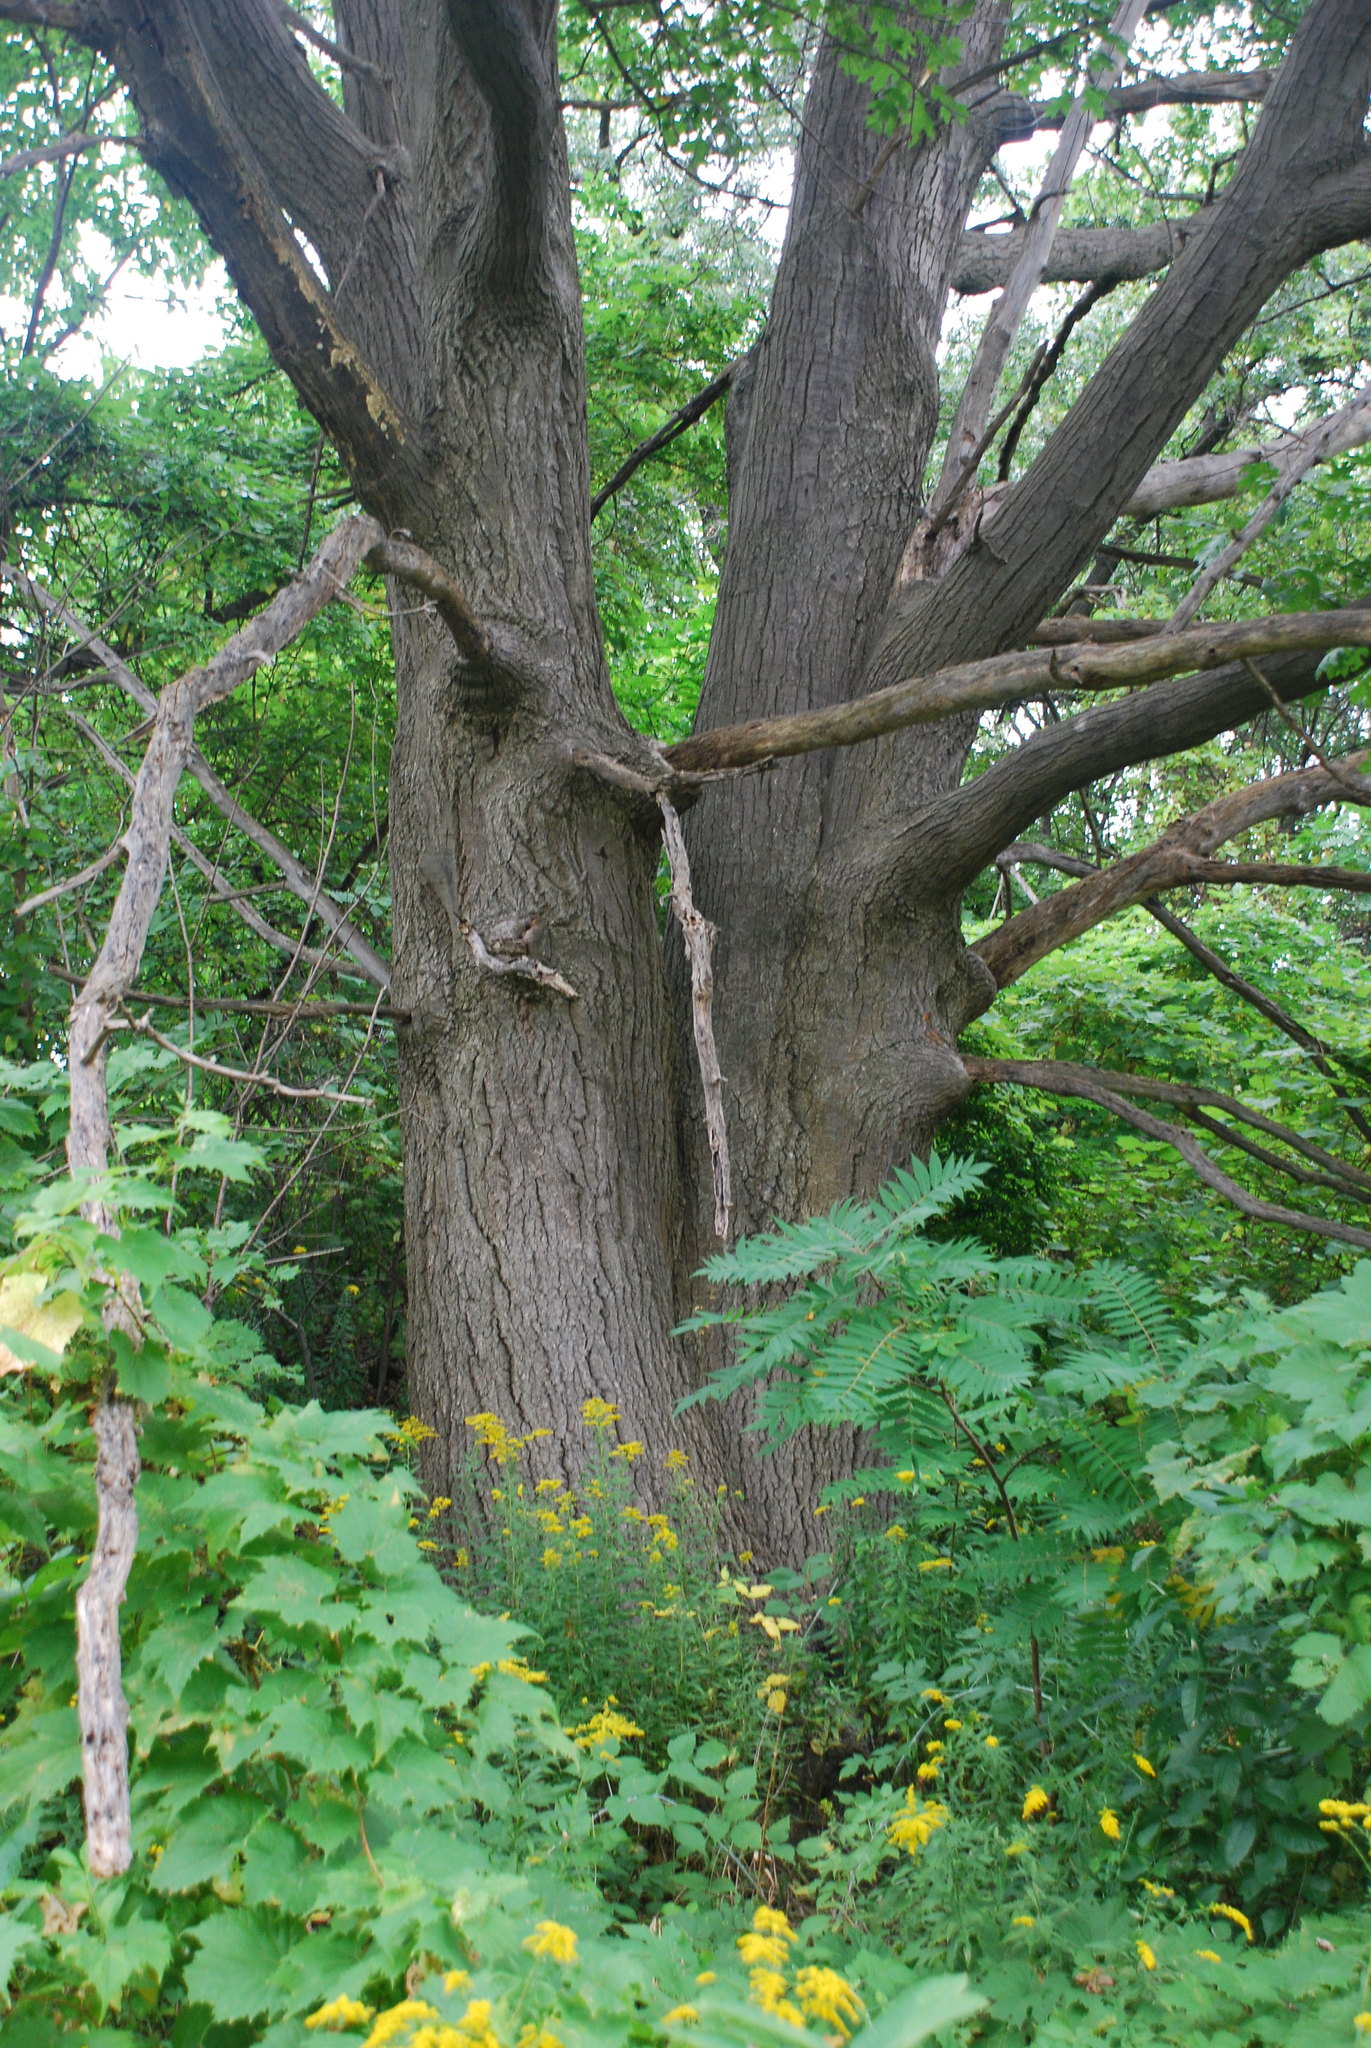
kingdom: Plantae
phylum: Tracheophyta
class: Magnoliopsida
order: Fagales
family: Fagaceae
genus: Quercus
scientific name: Quercus velutina
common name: Black oak
